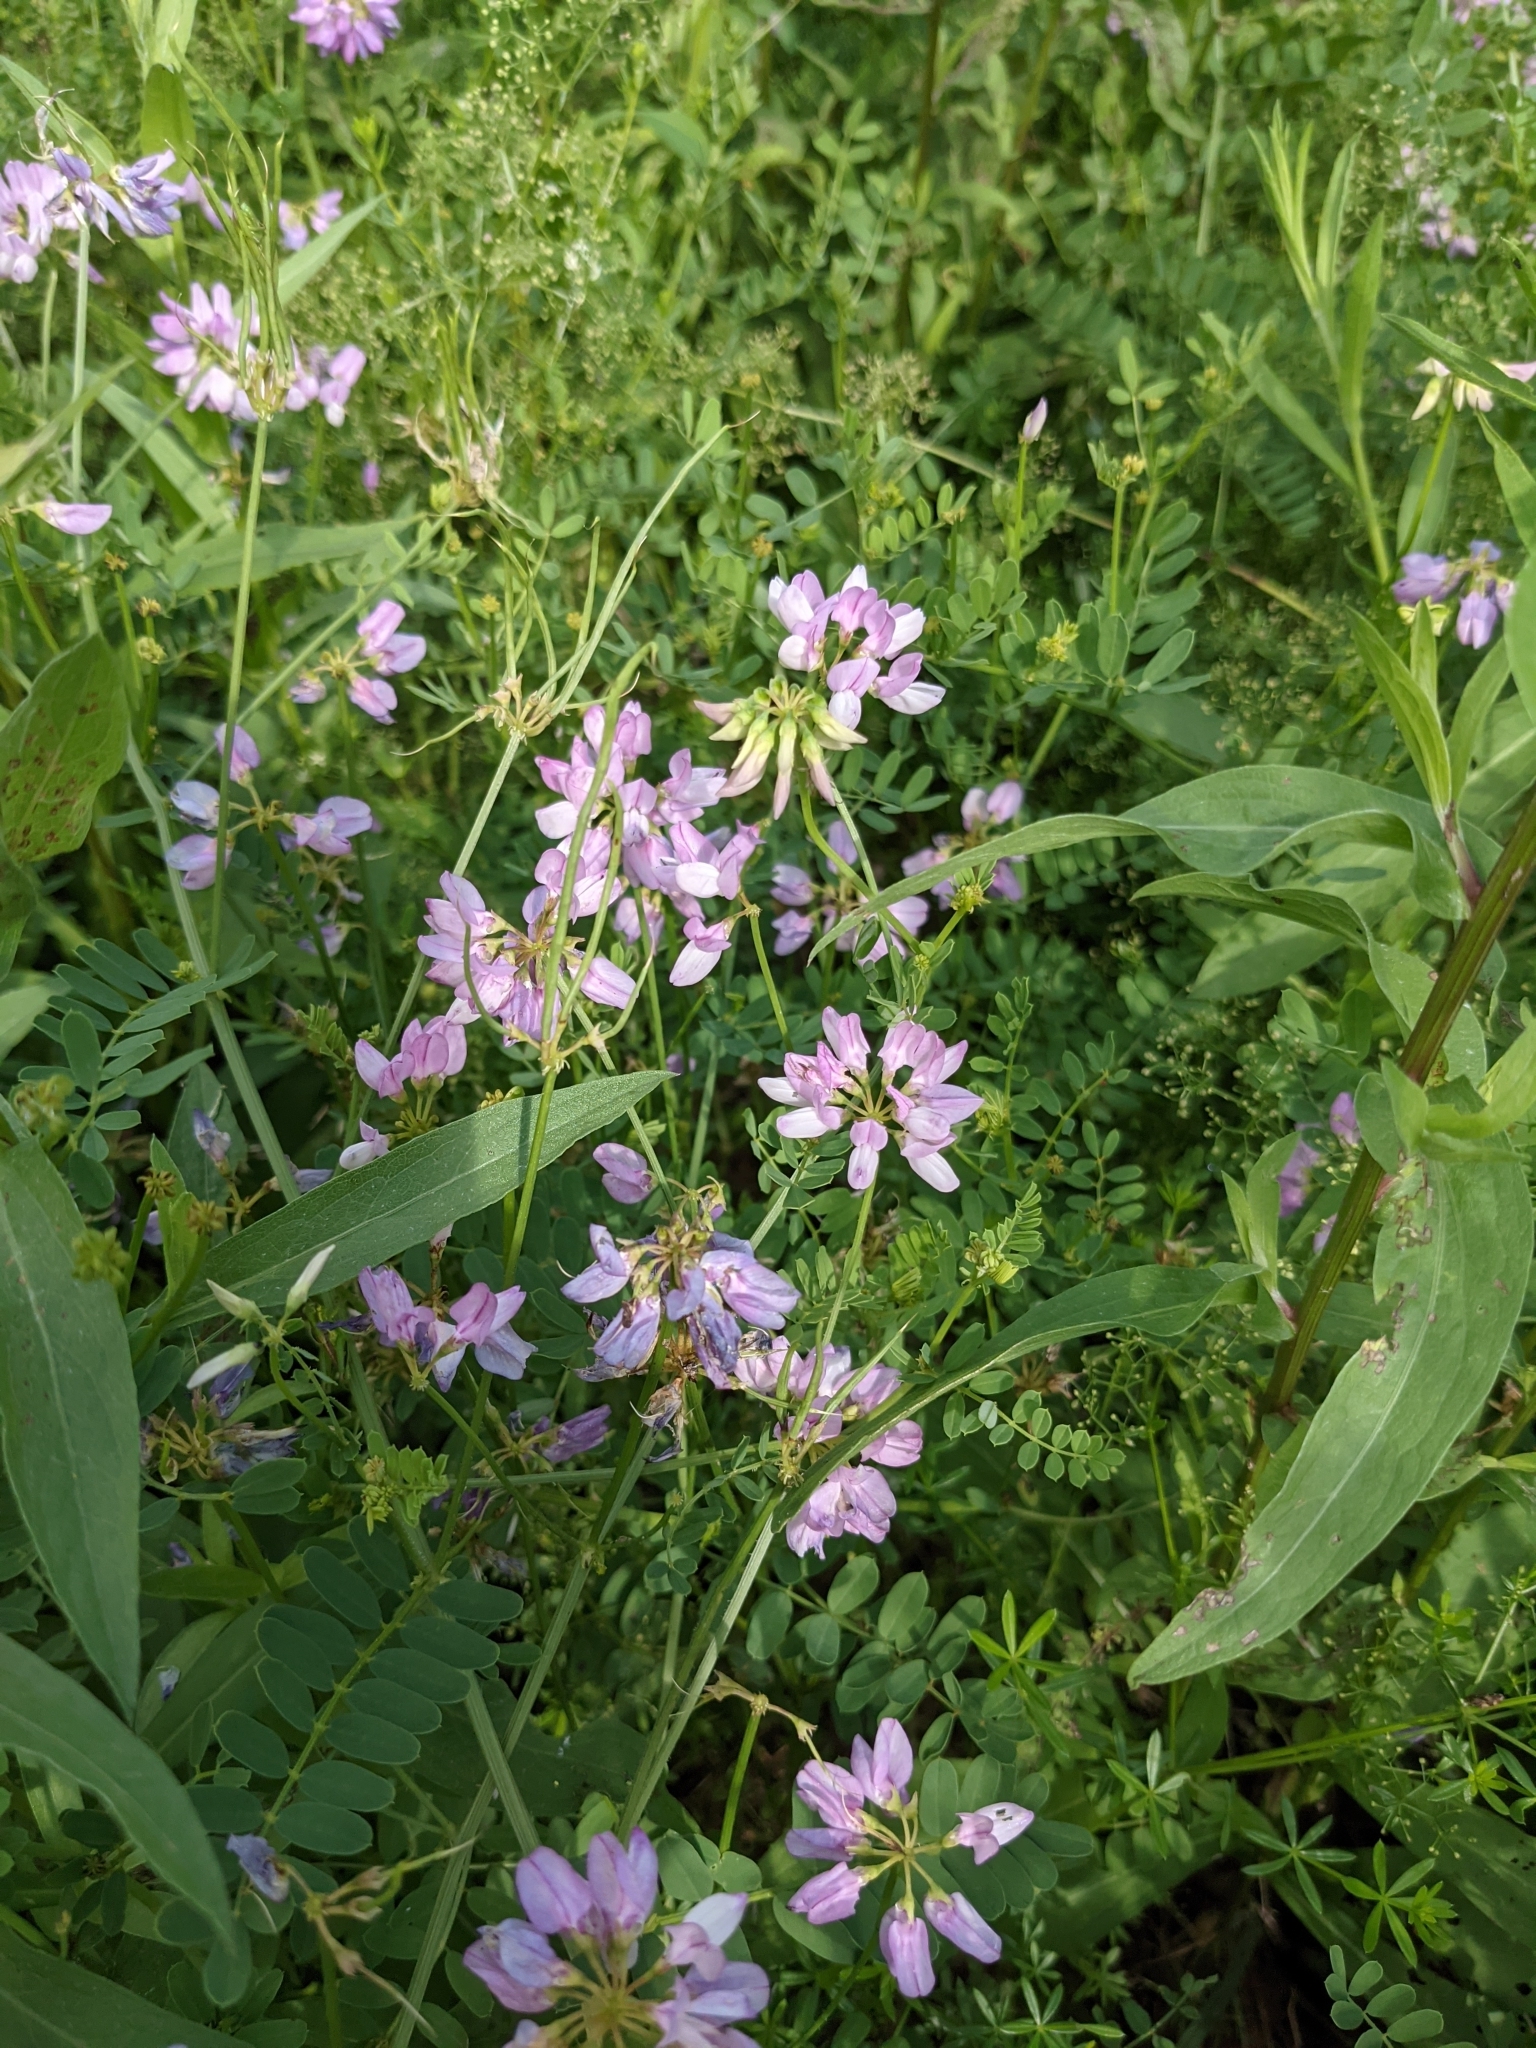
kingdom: Plantae
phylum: Tracheophyta
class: Magnoliopsida
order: Fabales
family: Fabaceae
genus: Coronilla
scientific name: Coronilla varia
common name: Crownvetch
